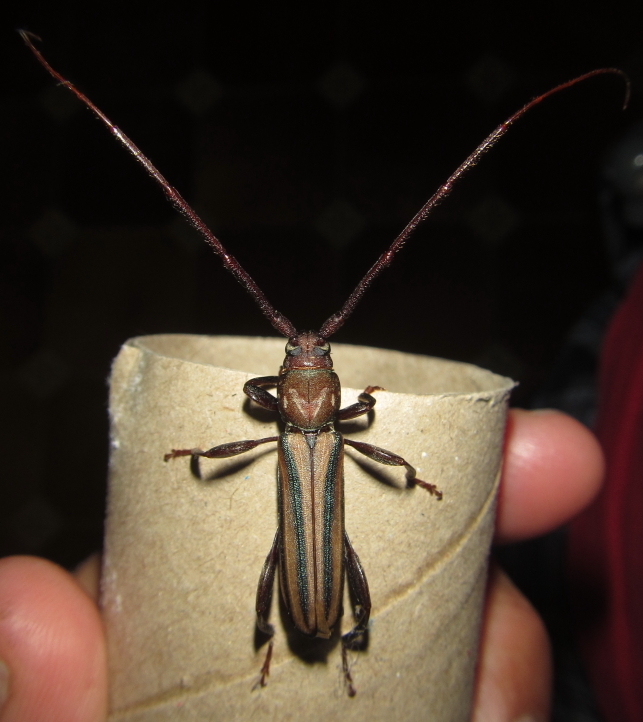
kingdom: Animalia
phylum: Arthropoda
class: Insecta
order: Coleoptera
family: Cerambycidae
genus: Xystrocera
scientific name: Xystrocera dispar
